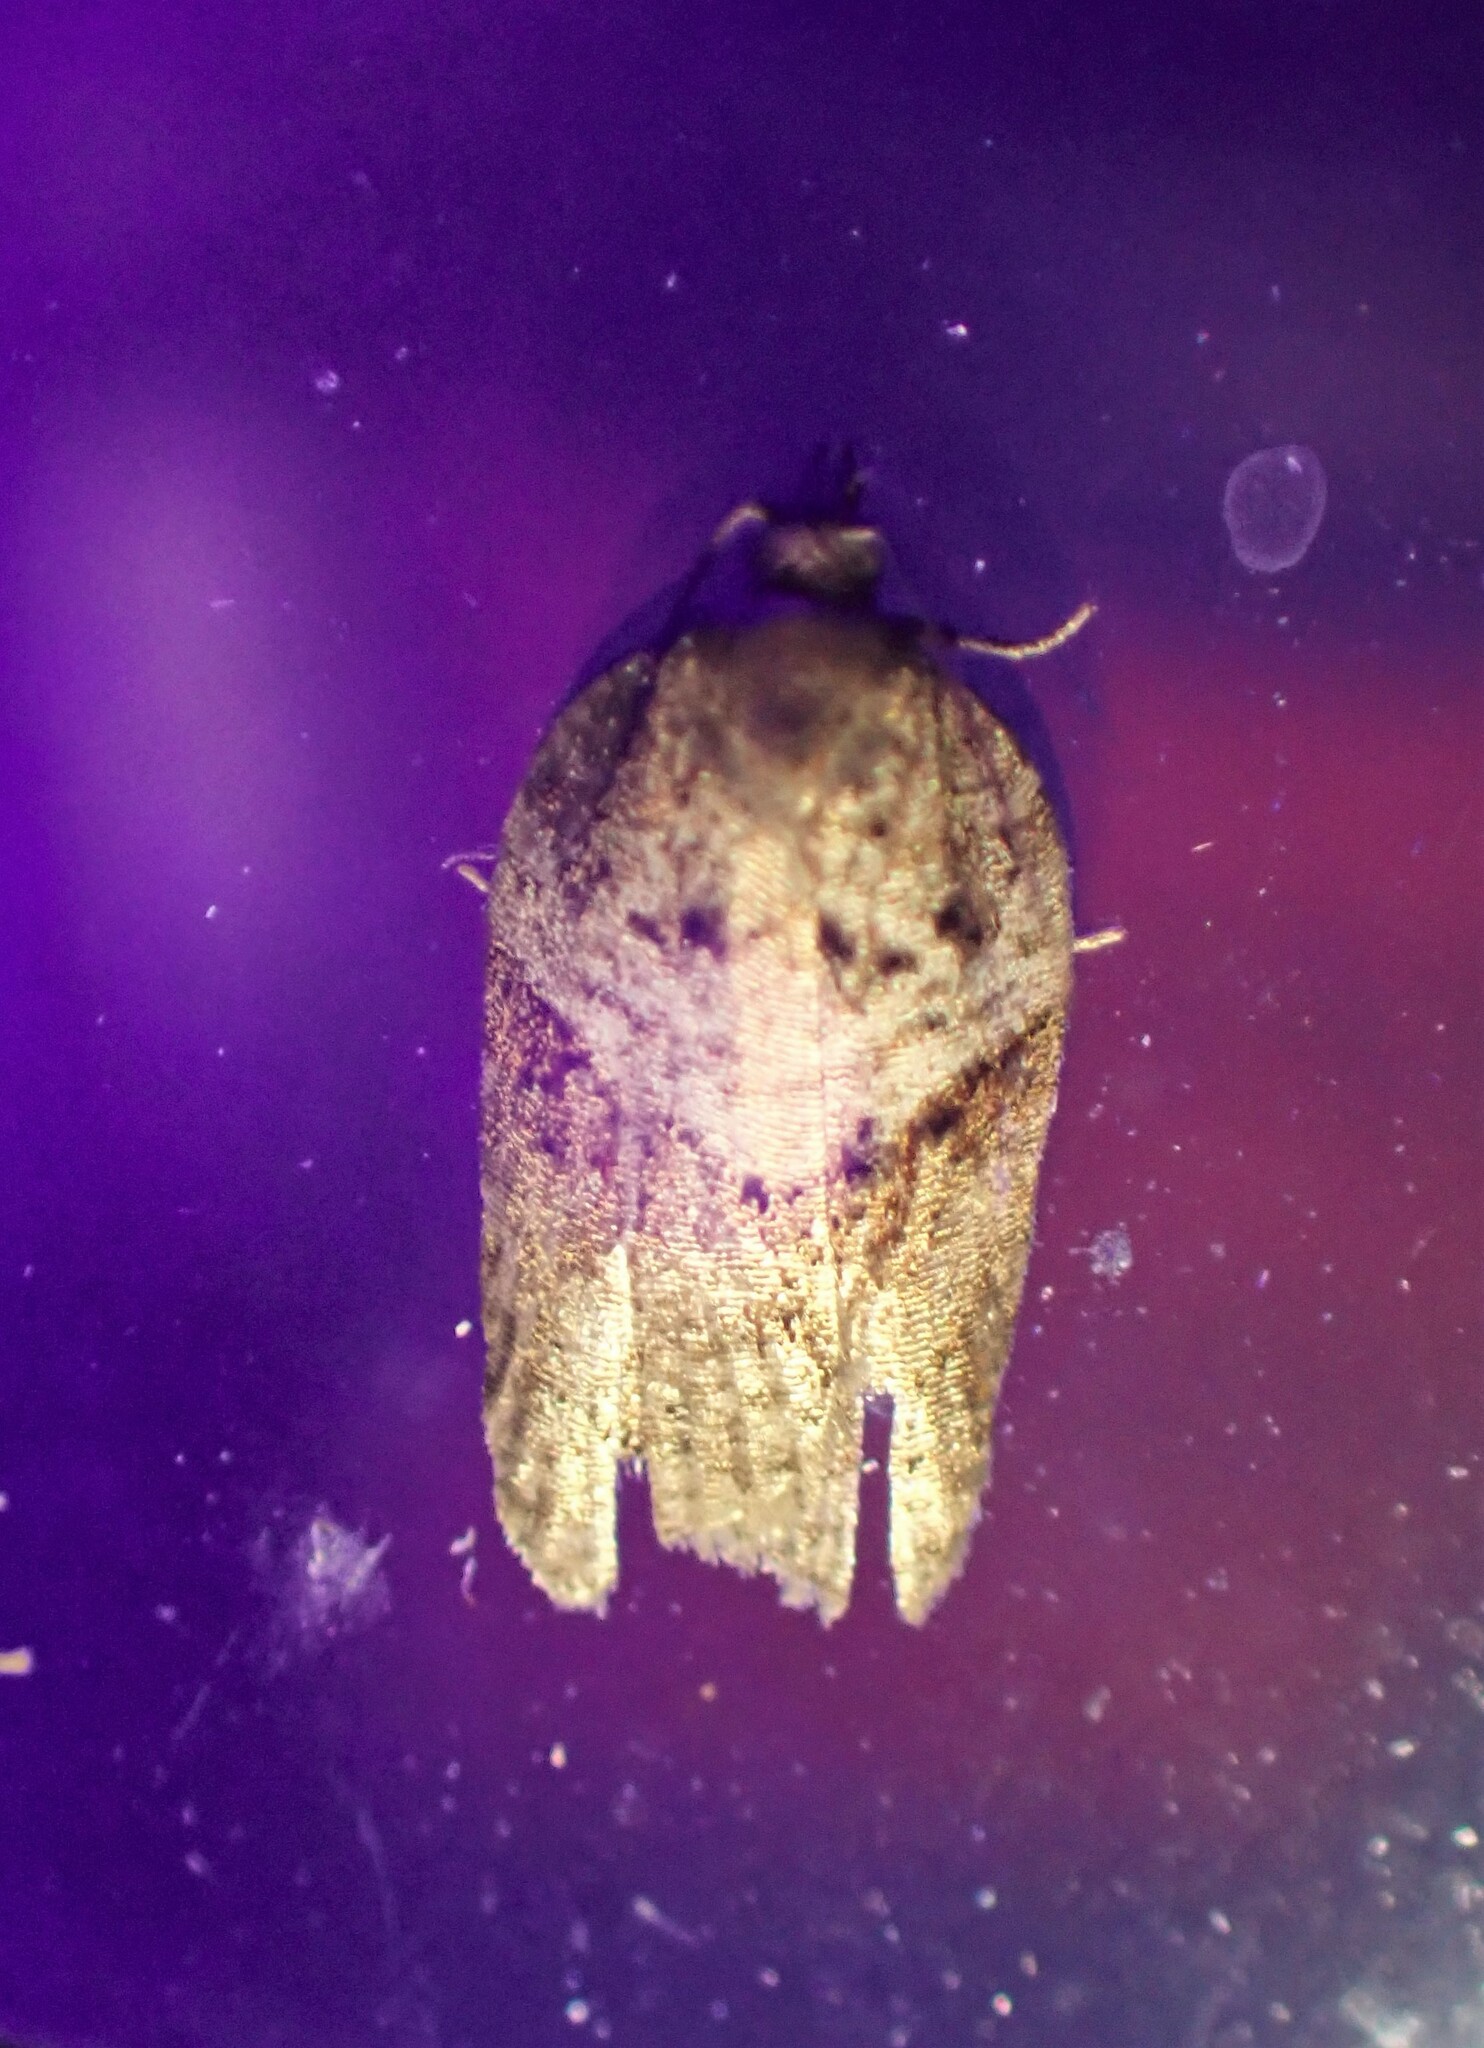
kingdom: Animalia
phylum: Arthropoda
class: Insecta
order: Lepidoptera
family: Tortricidae
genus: Acleris
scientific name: Acleris macdunnoughi
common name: Macdunnough's acleris
